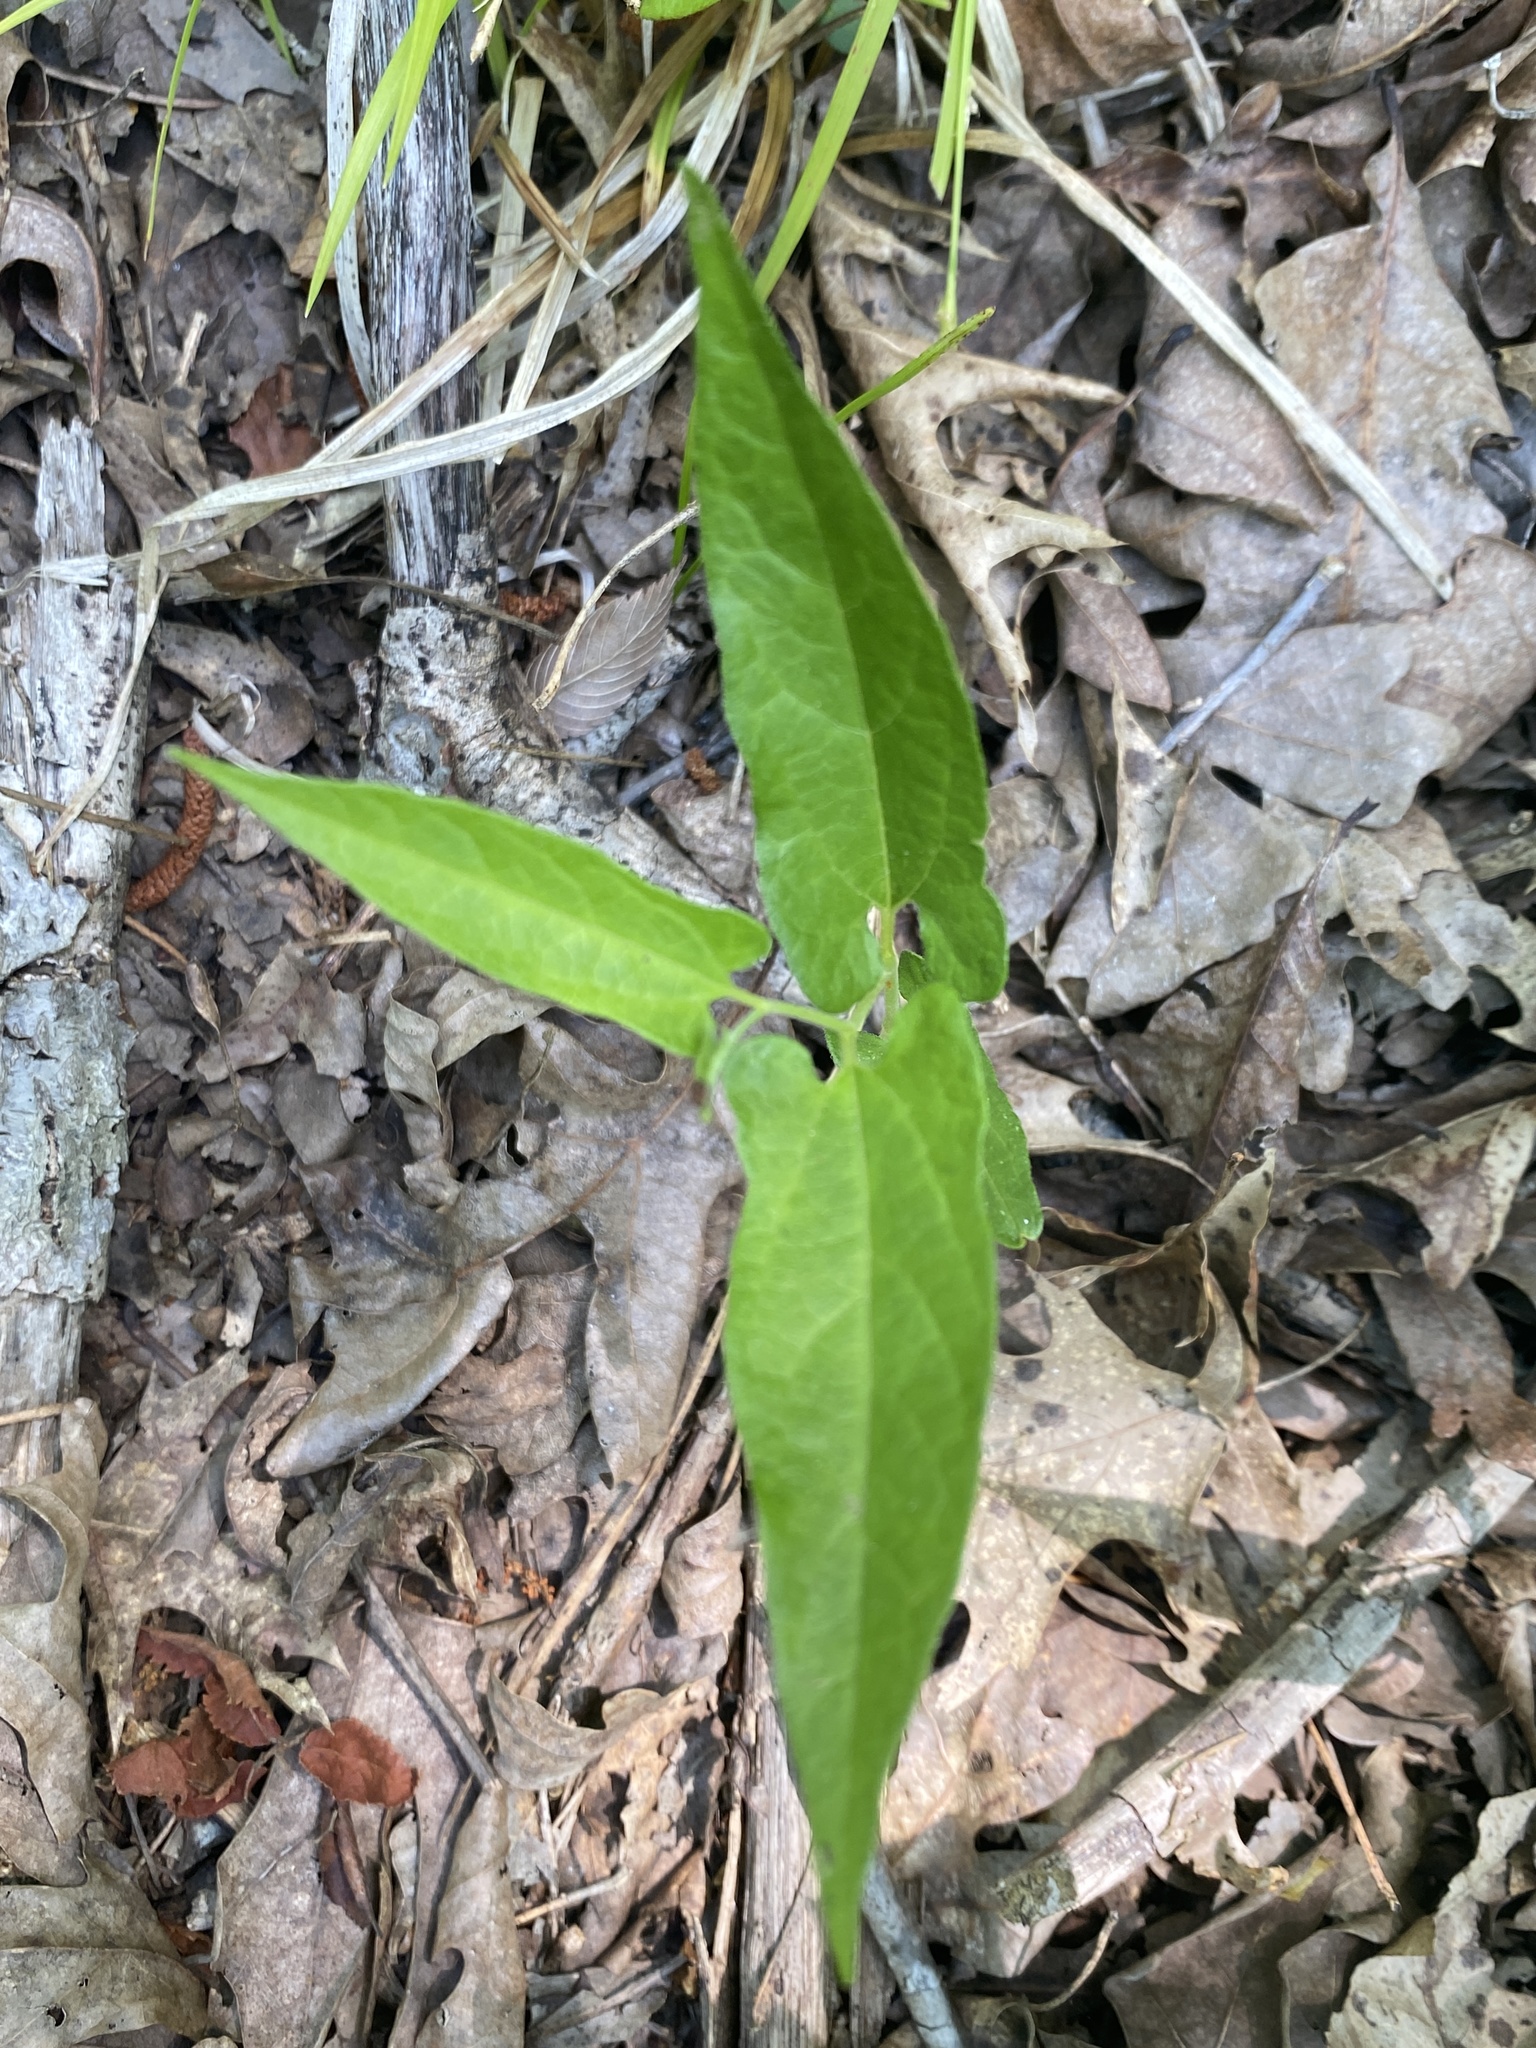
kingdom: Plantae
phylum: Tracheophyta
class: Magnoliopsida
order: Piperales
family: Aristolochiaceae
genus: Endodeca
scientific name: Endodeca serpentaria
